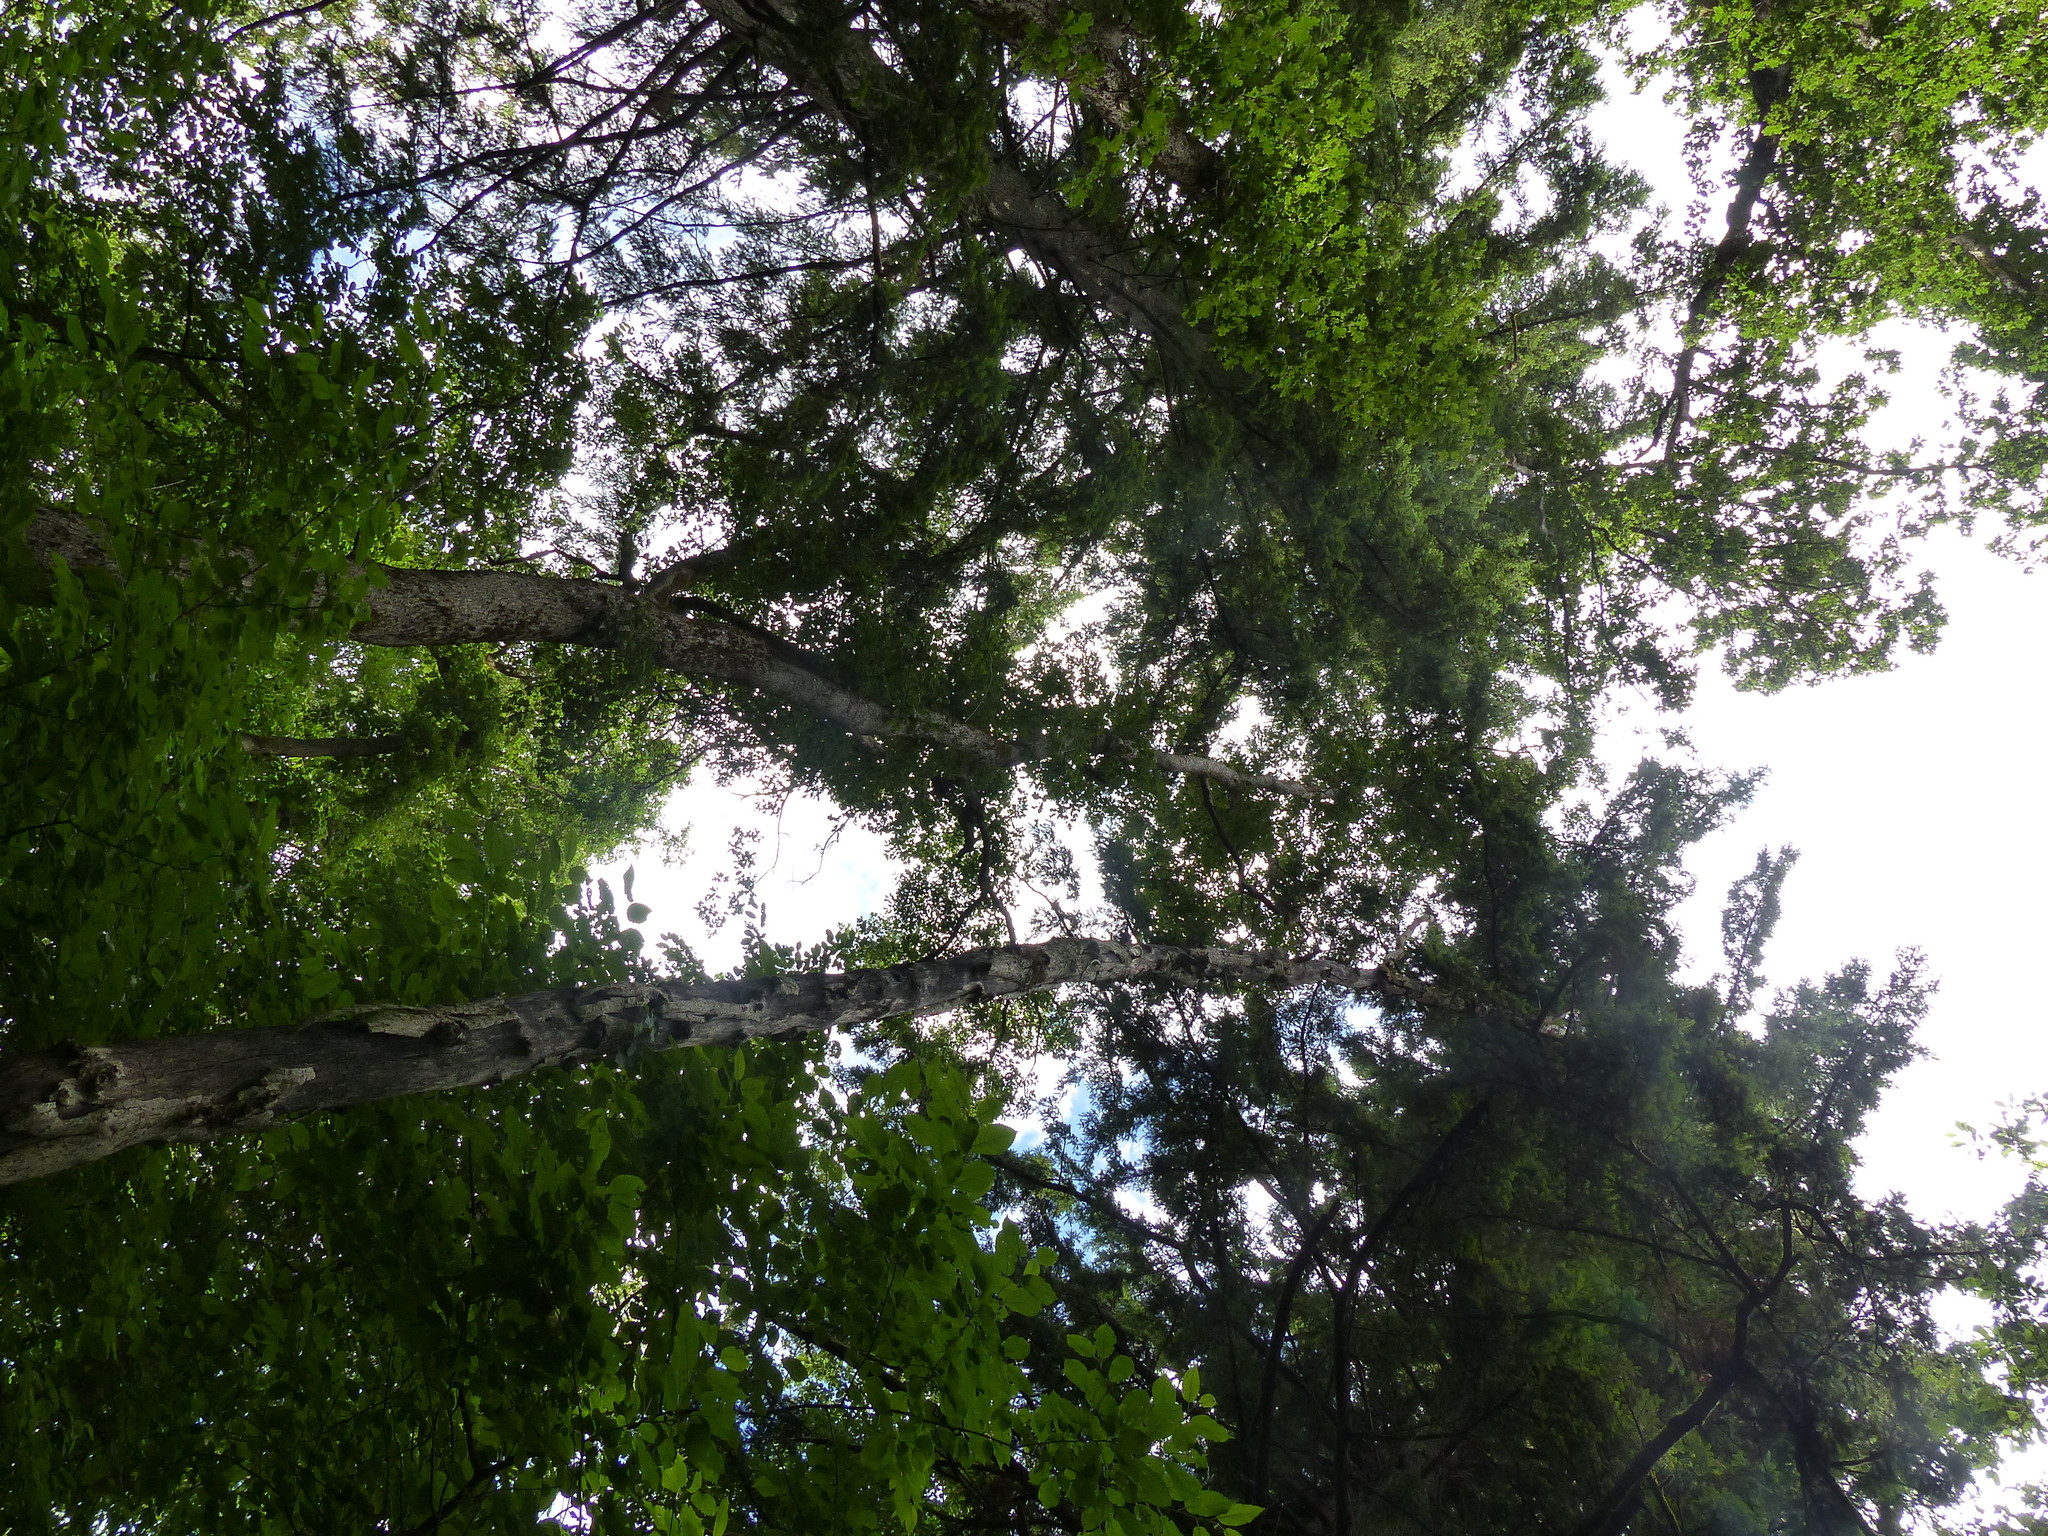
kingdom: Plantae
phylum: Tracheophyta
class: Magnoliopsida
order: Fagales
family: Fagaceae
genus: Quercus
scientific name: Quercus garryana
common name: Garry oak
